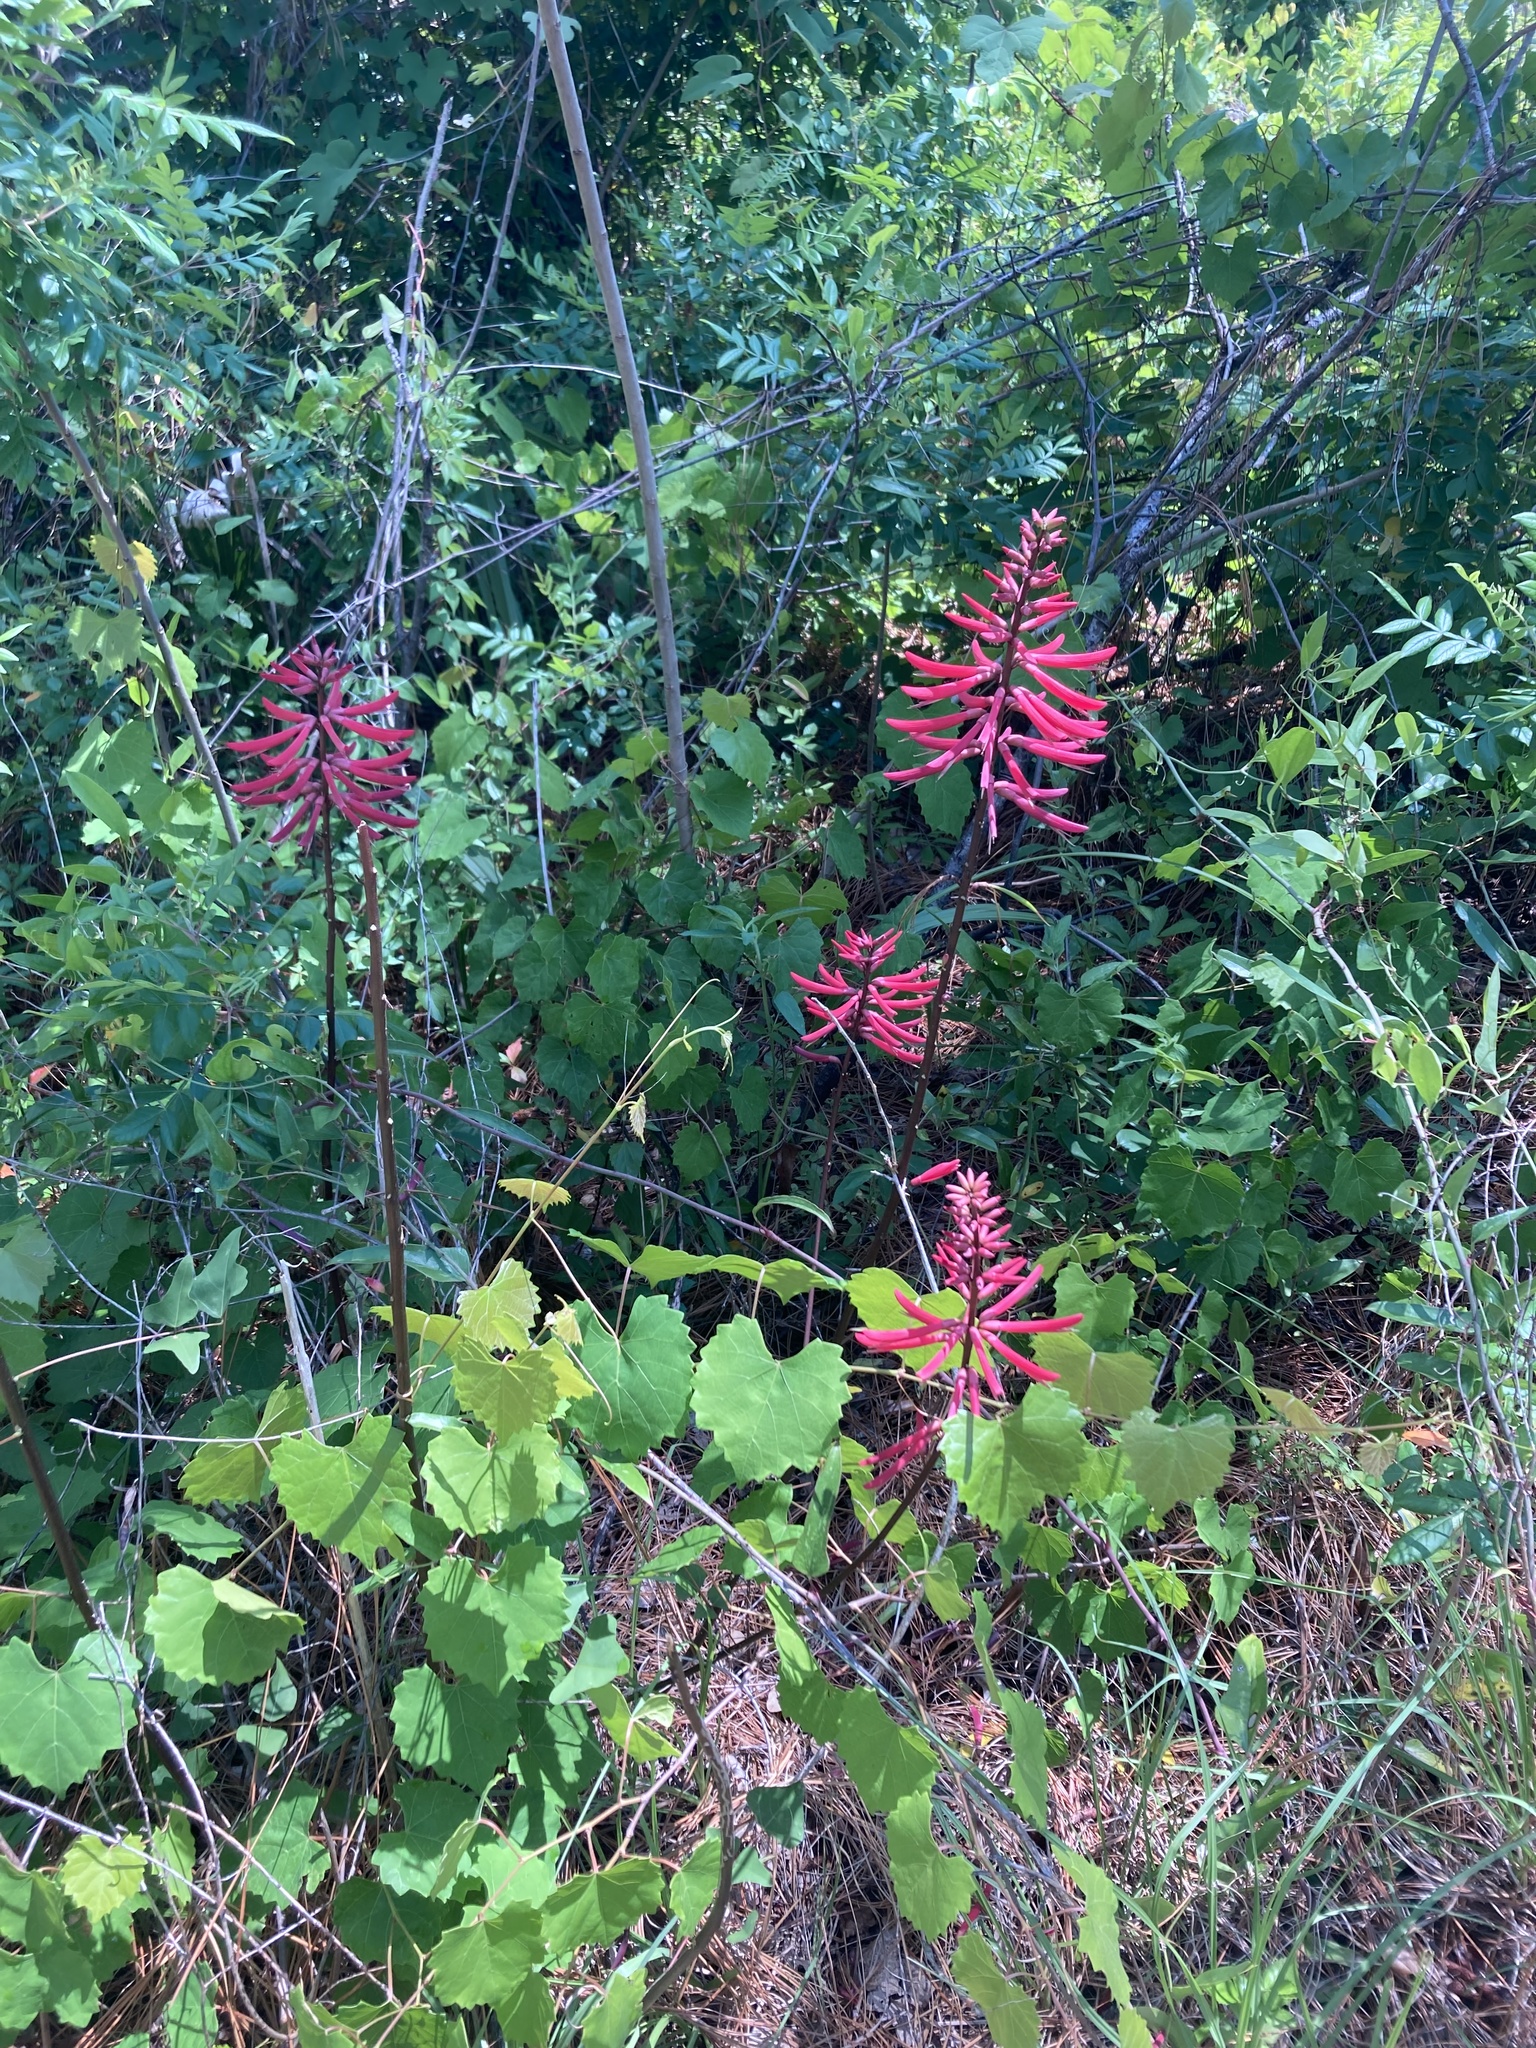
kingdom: Plantae
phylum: Tracheophyta
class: Magnoliopsida
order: Fabales
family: Fabaceae
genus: Erythrina
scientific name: Erythrina herbacea
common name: Coral-bean
